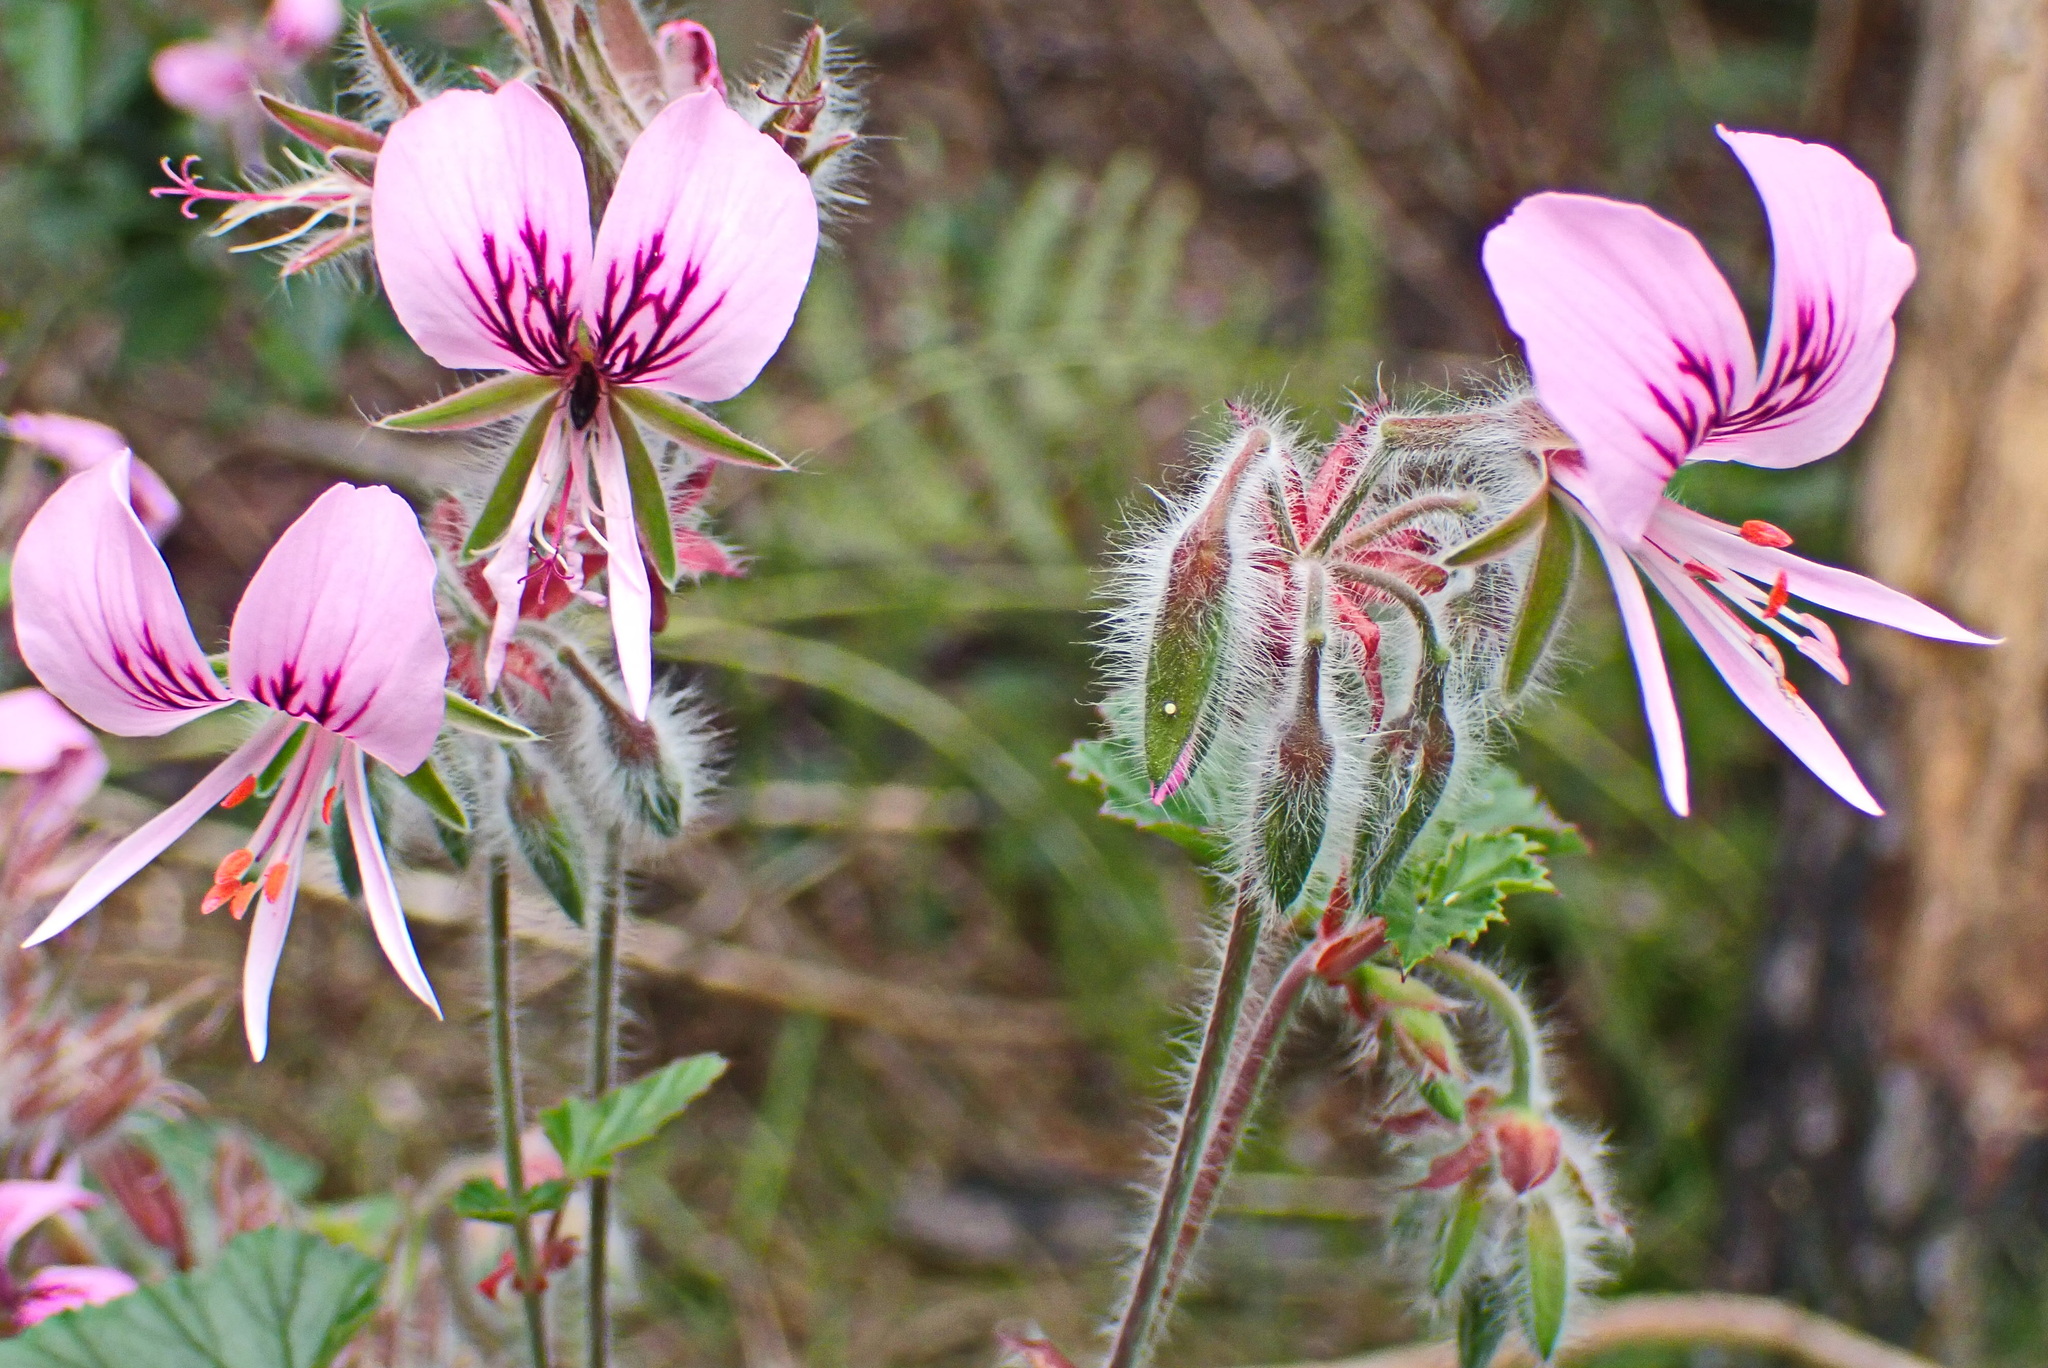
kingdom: Plantae
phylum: Tracheophyta
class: Magnoliopsida
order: Geraniales
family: Geraniaceae
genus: Pelargonium
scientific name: Pelargonium cordifolium
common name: Heart-leaf pelargonium
